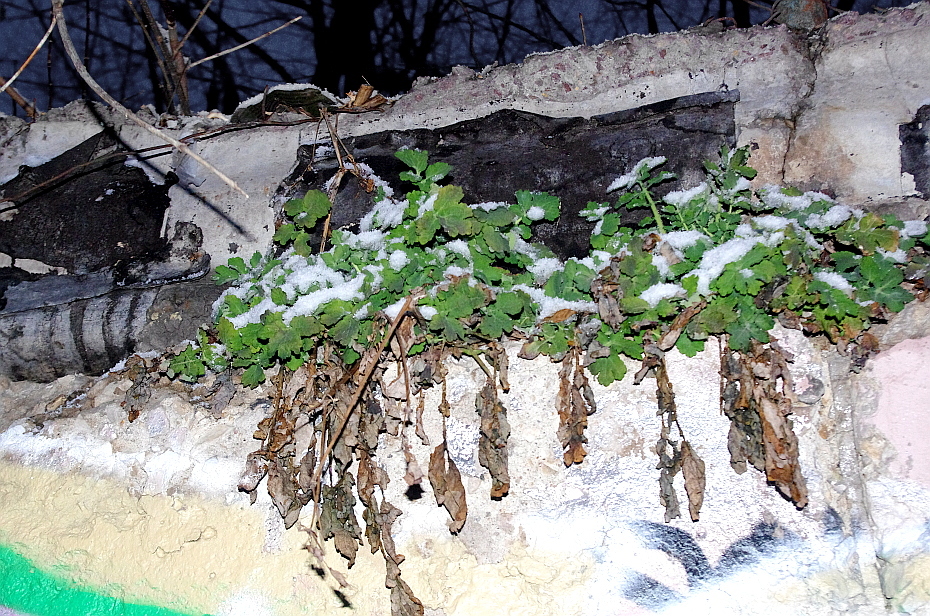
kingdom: Plantae
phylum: Tracheophyta
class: Magnoliopsida
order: Ranunculales
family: Papaveraceae
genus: Chelidonium
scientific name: Chelidonium majus
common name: Greater celandine
